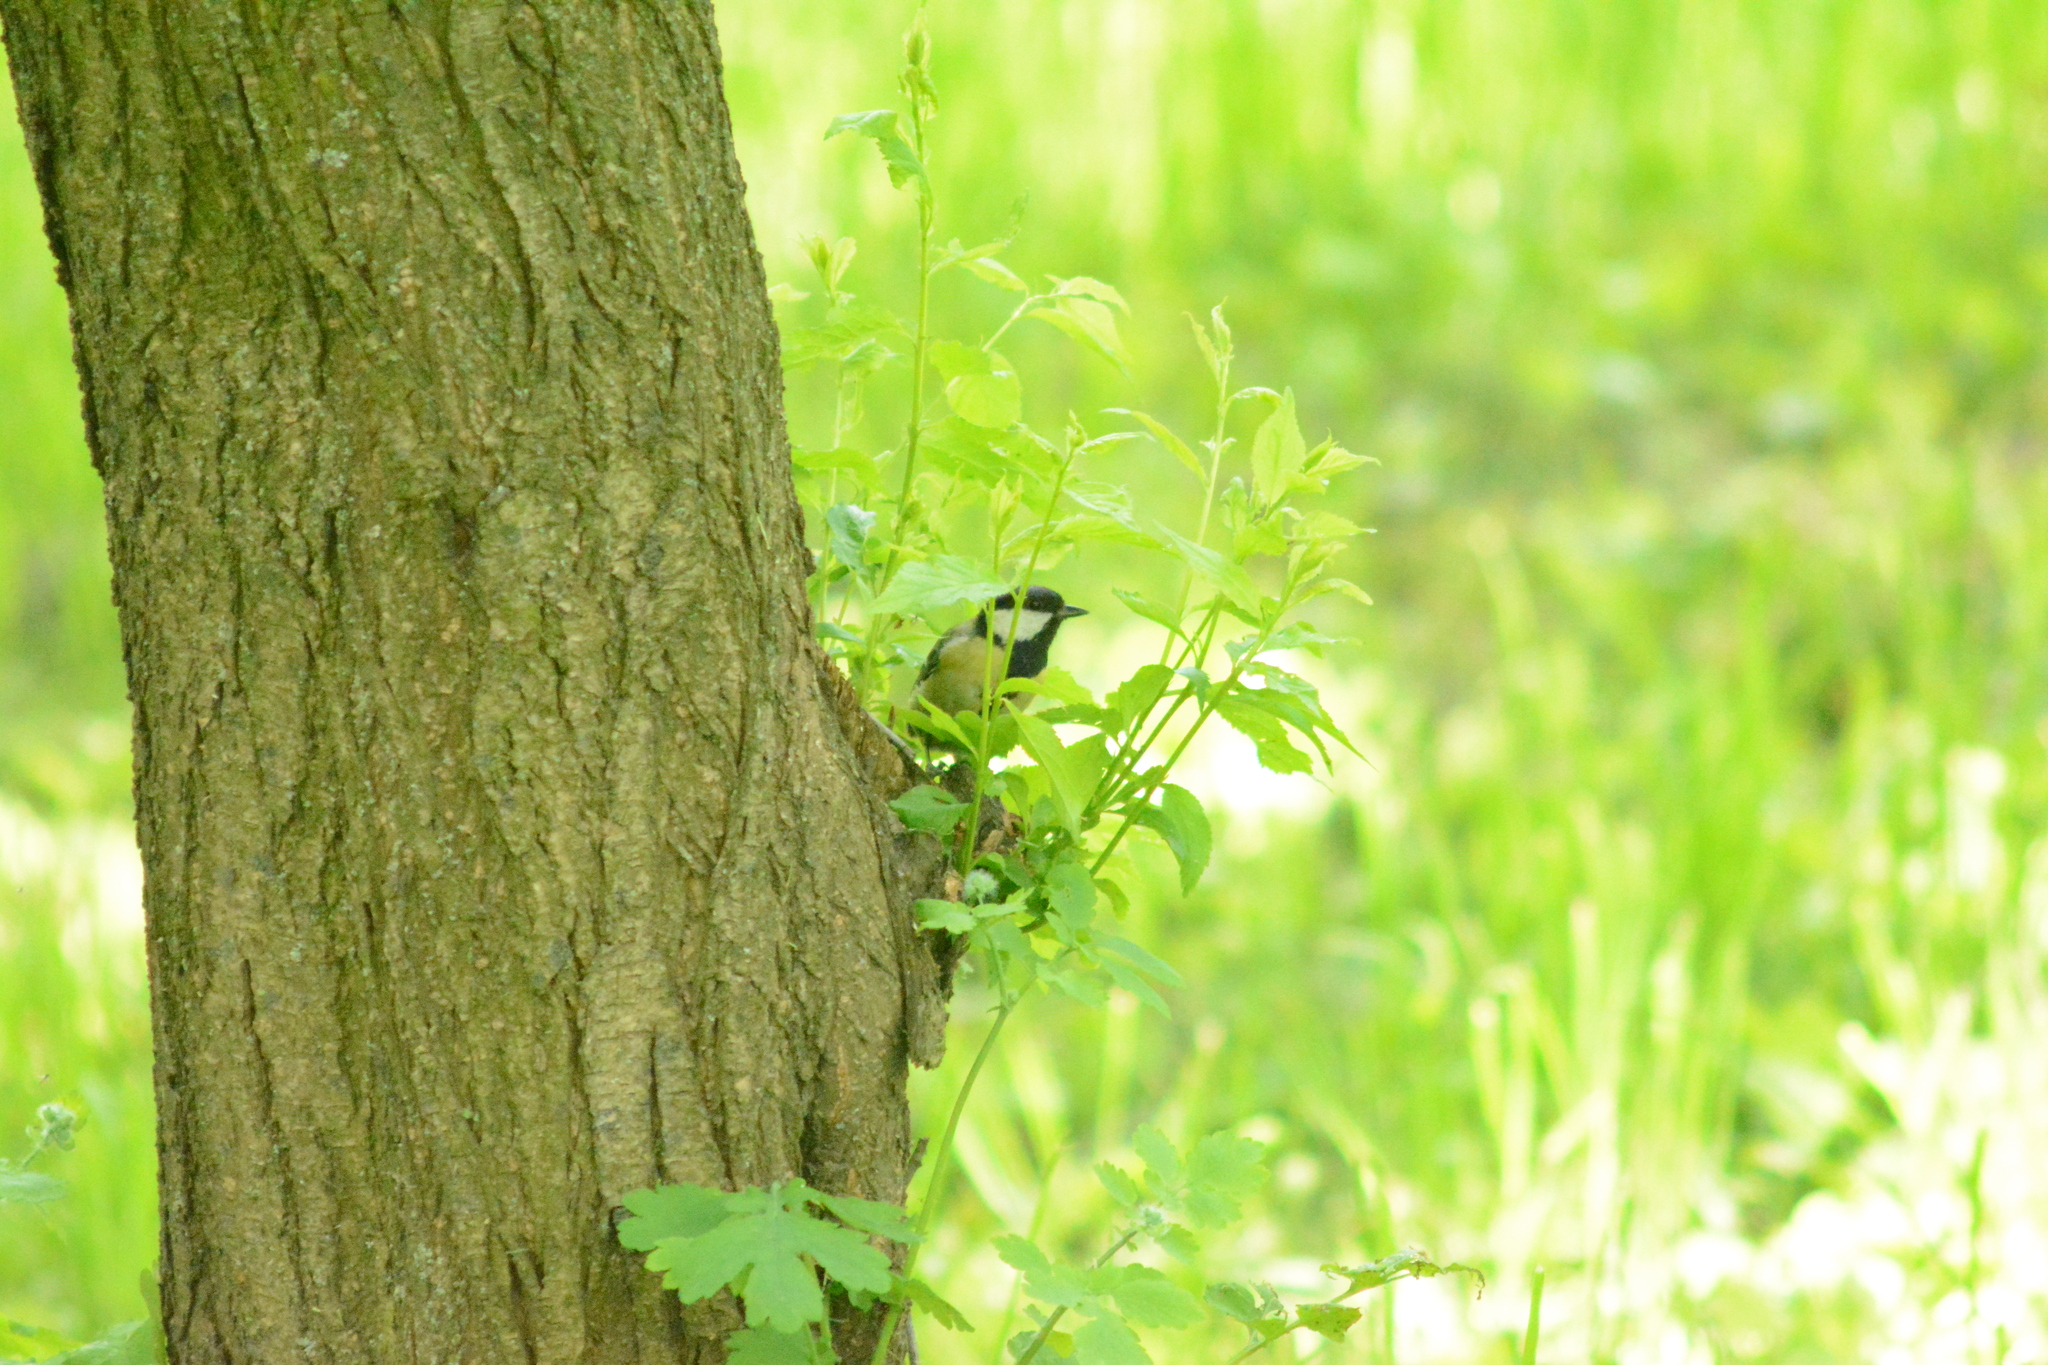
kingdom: Animalia
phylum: Chordata
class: Aves
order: Passeriformes
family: Paridae
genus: Parus
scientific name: Parus major
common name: Great tit
